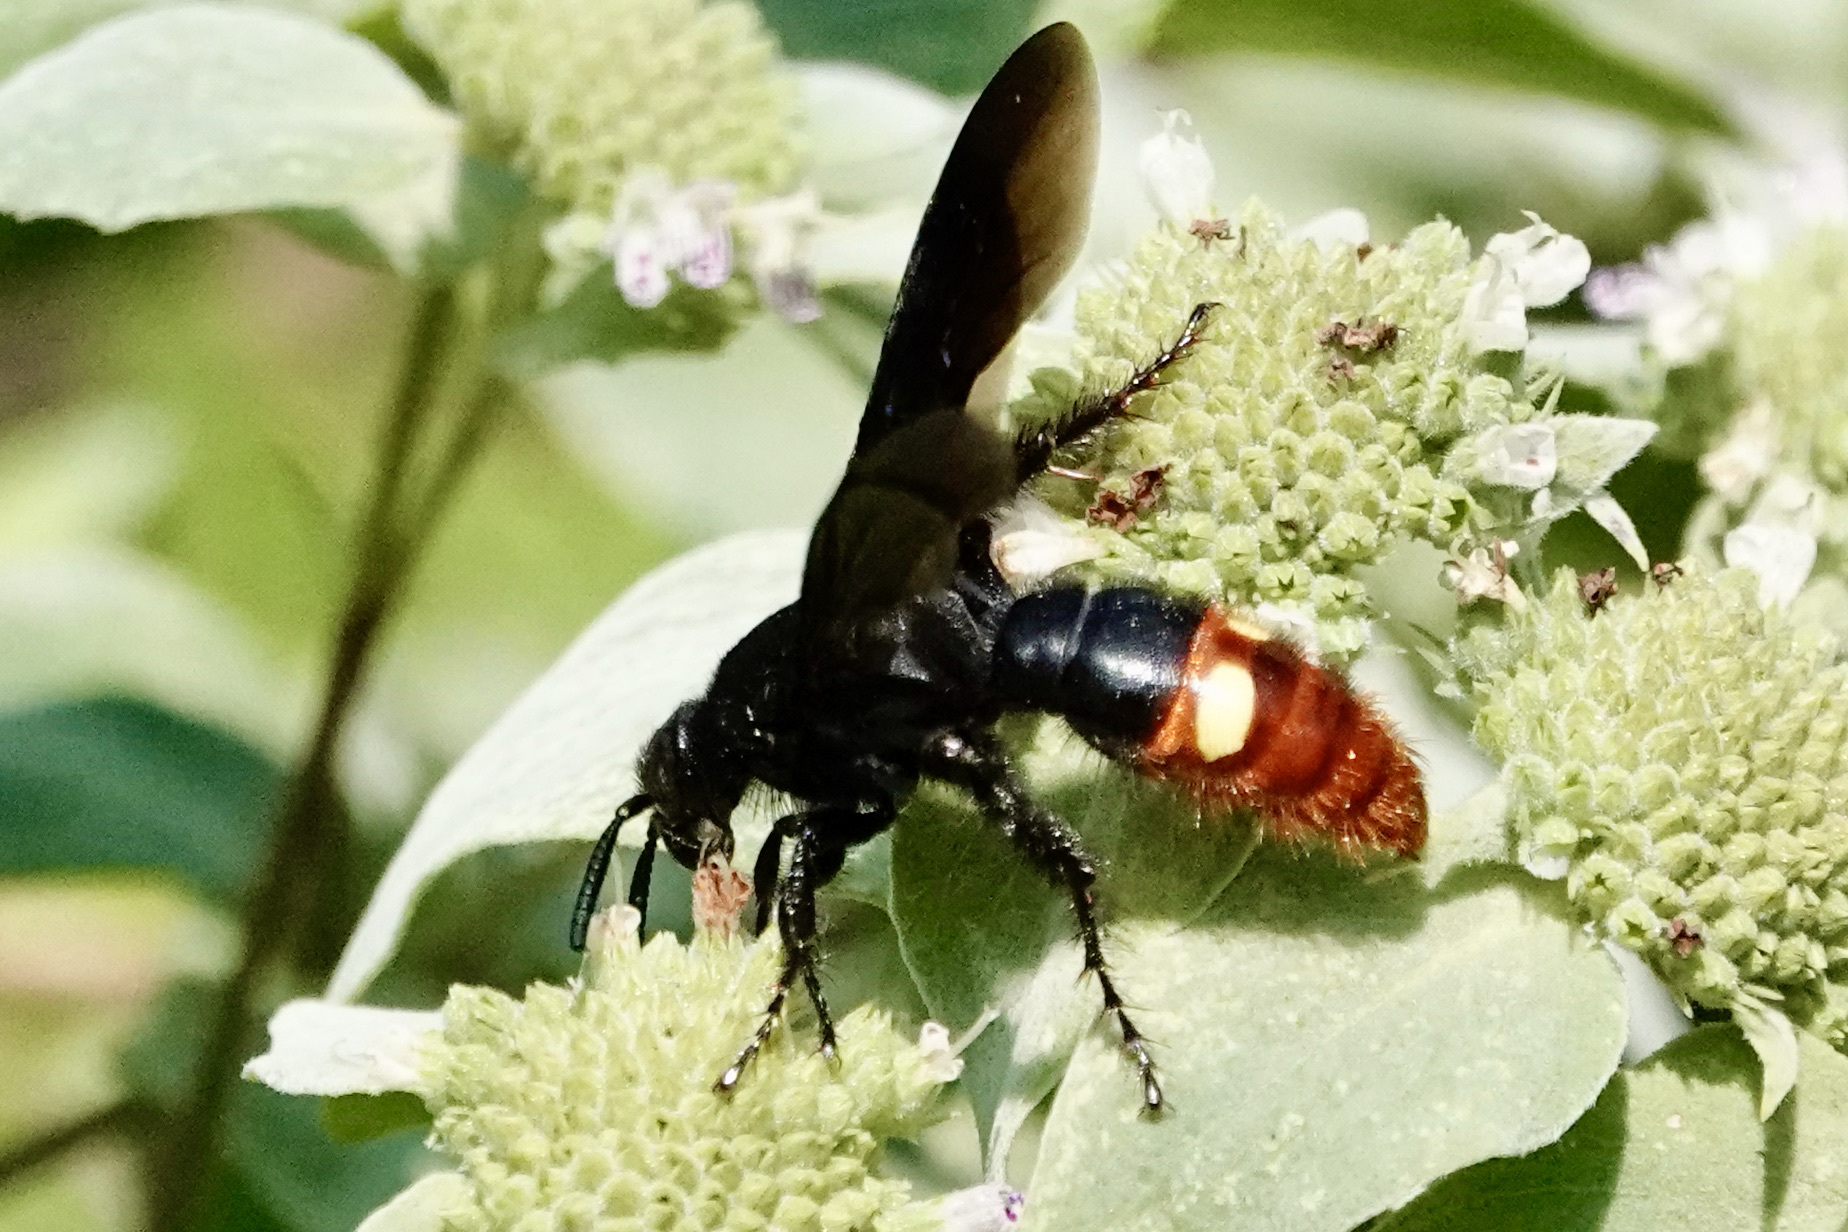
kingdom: Animalia
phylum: Arthropoda
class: Insecta
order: Hymenoptera
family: Scoliidae
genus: Scolia
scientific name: Scolia dubia
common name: Blue-winged scoliid wasp
